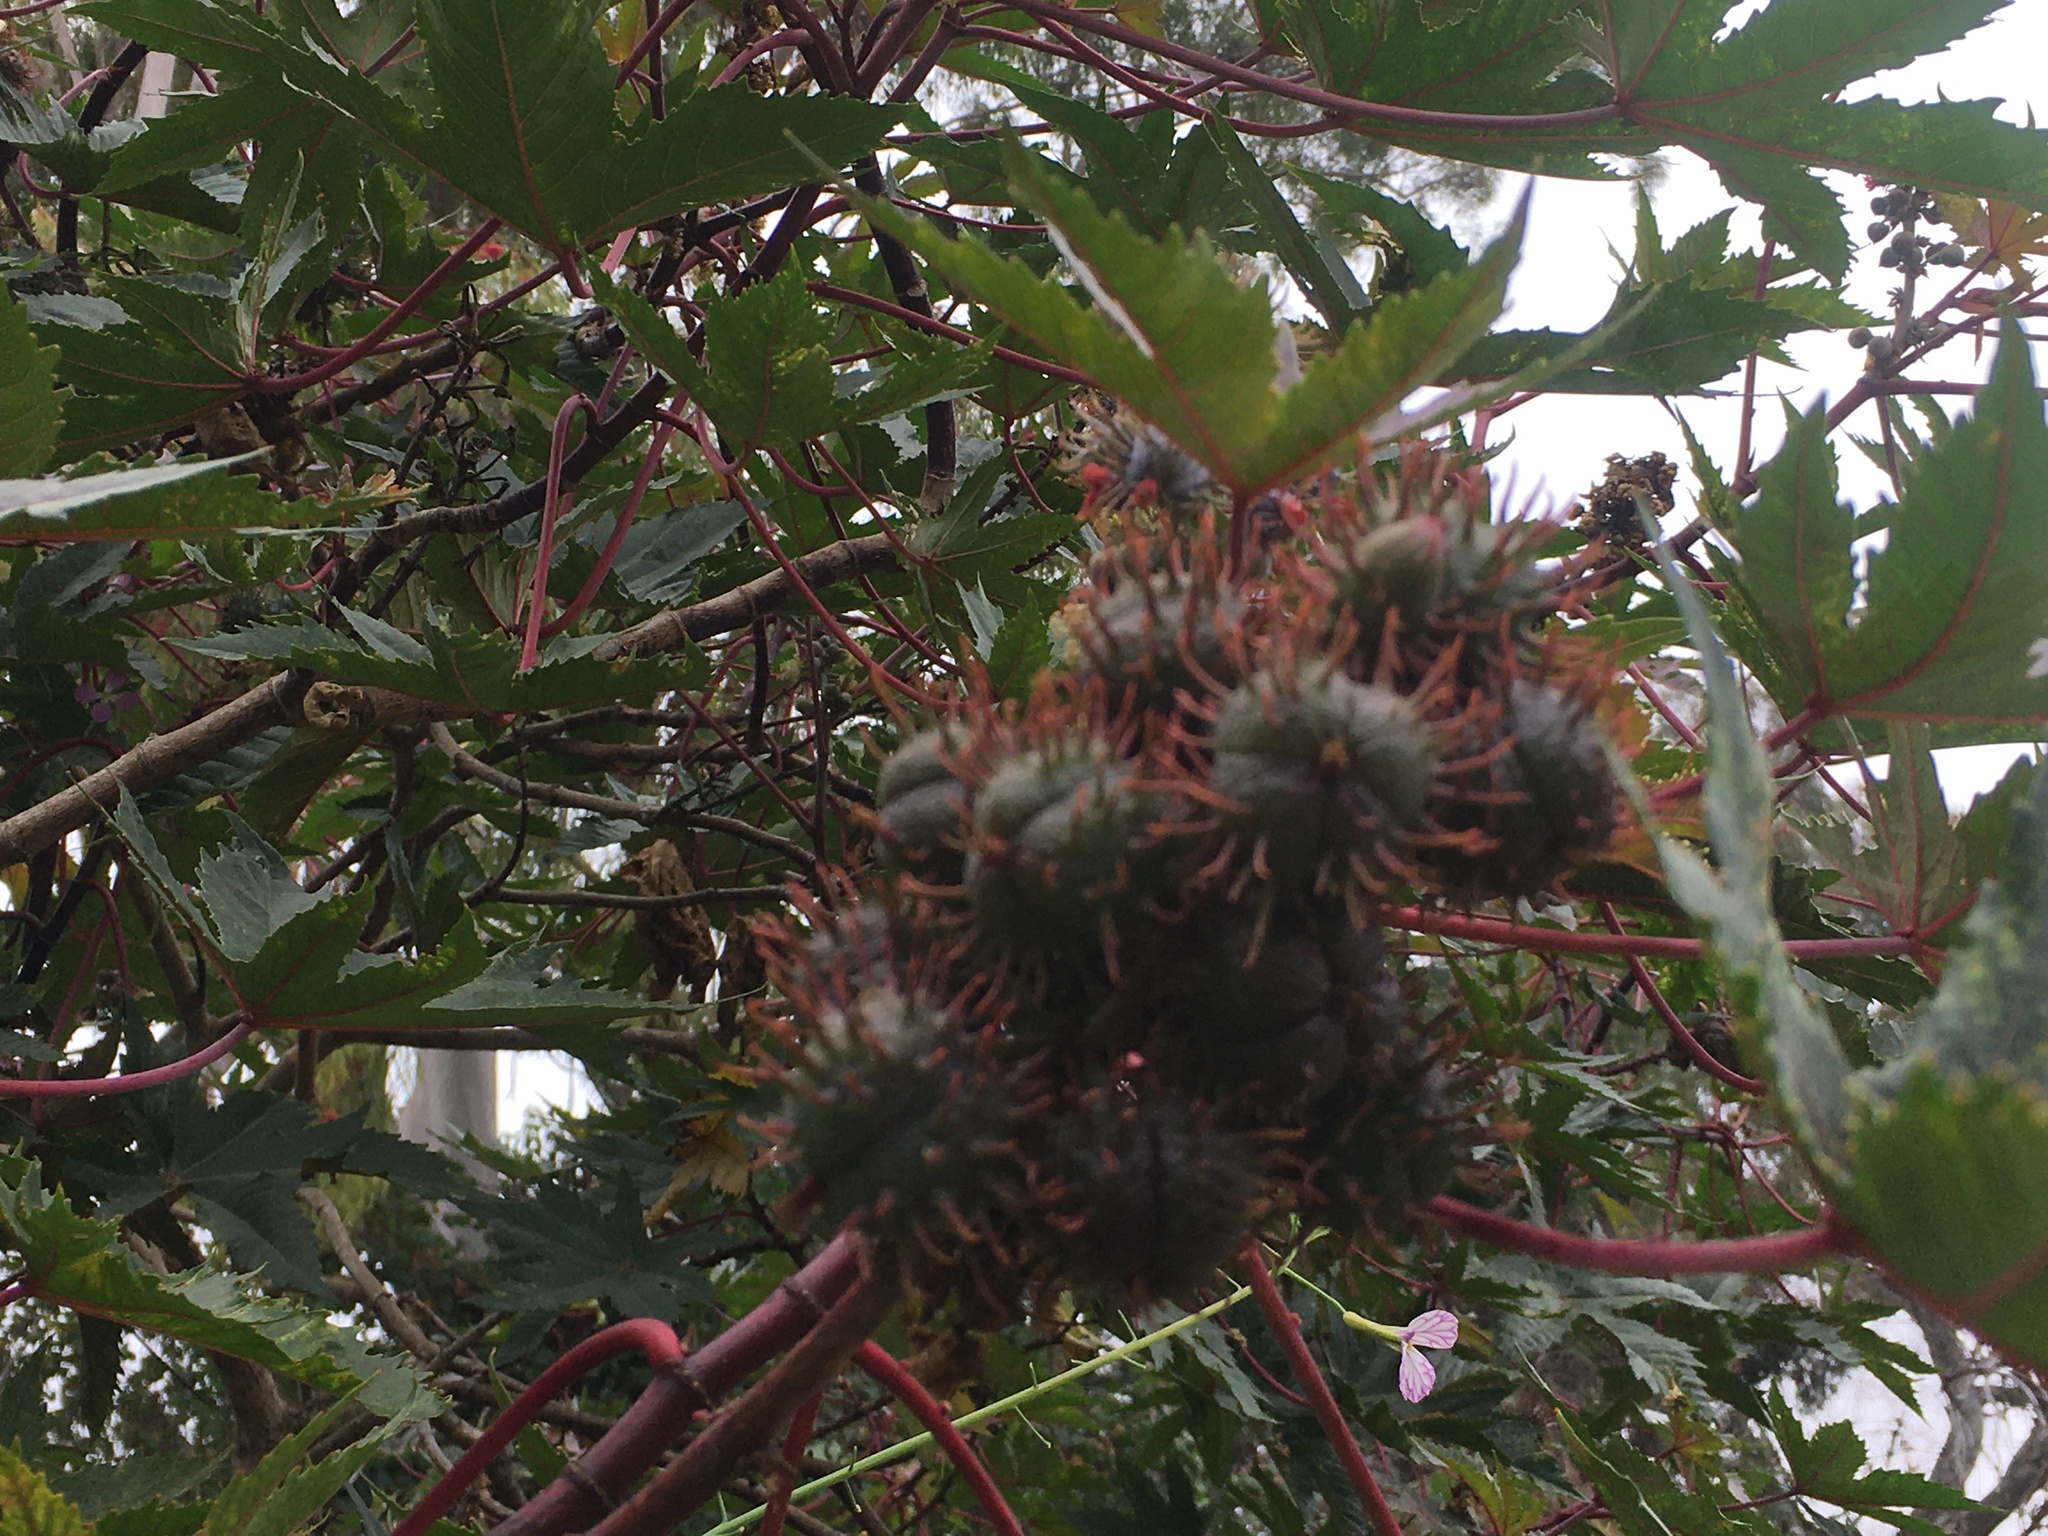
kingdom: Plantae
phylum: Tracheophyta
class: Magnoliopsida
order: Malpighiales
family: Euphorbiaceae
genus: Ricinus
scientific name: Ricinus communis
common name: Castor-oil-plant
